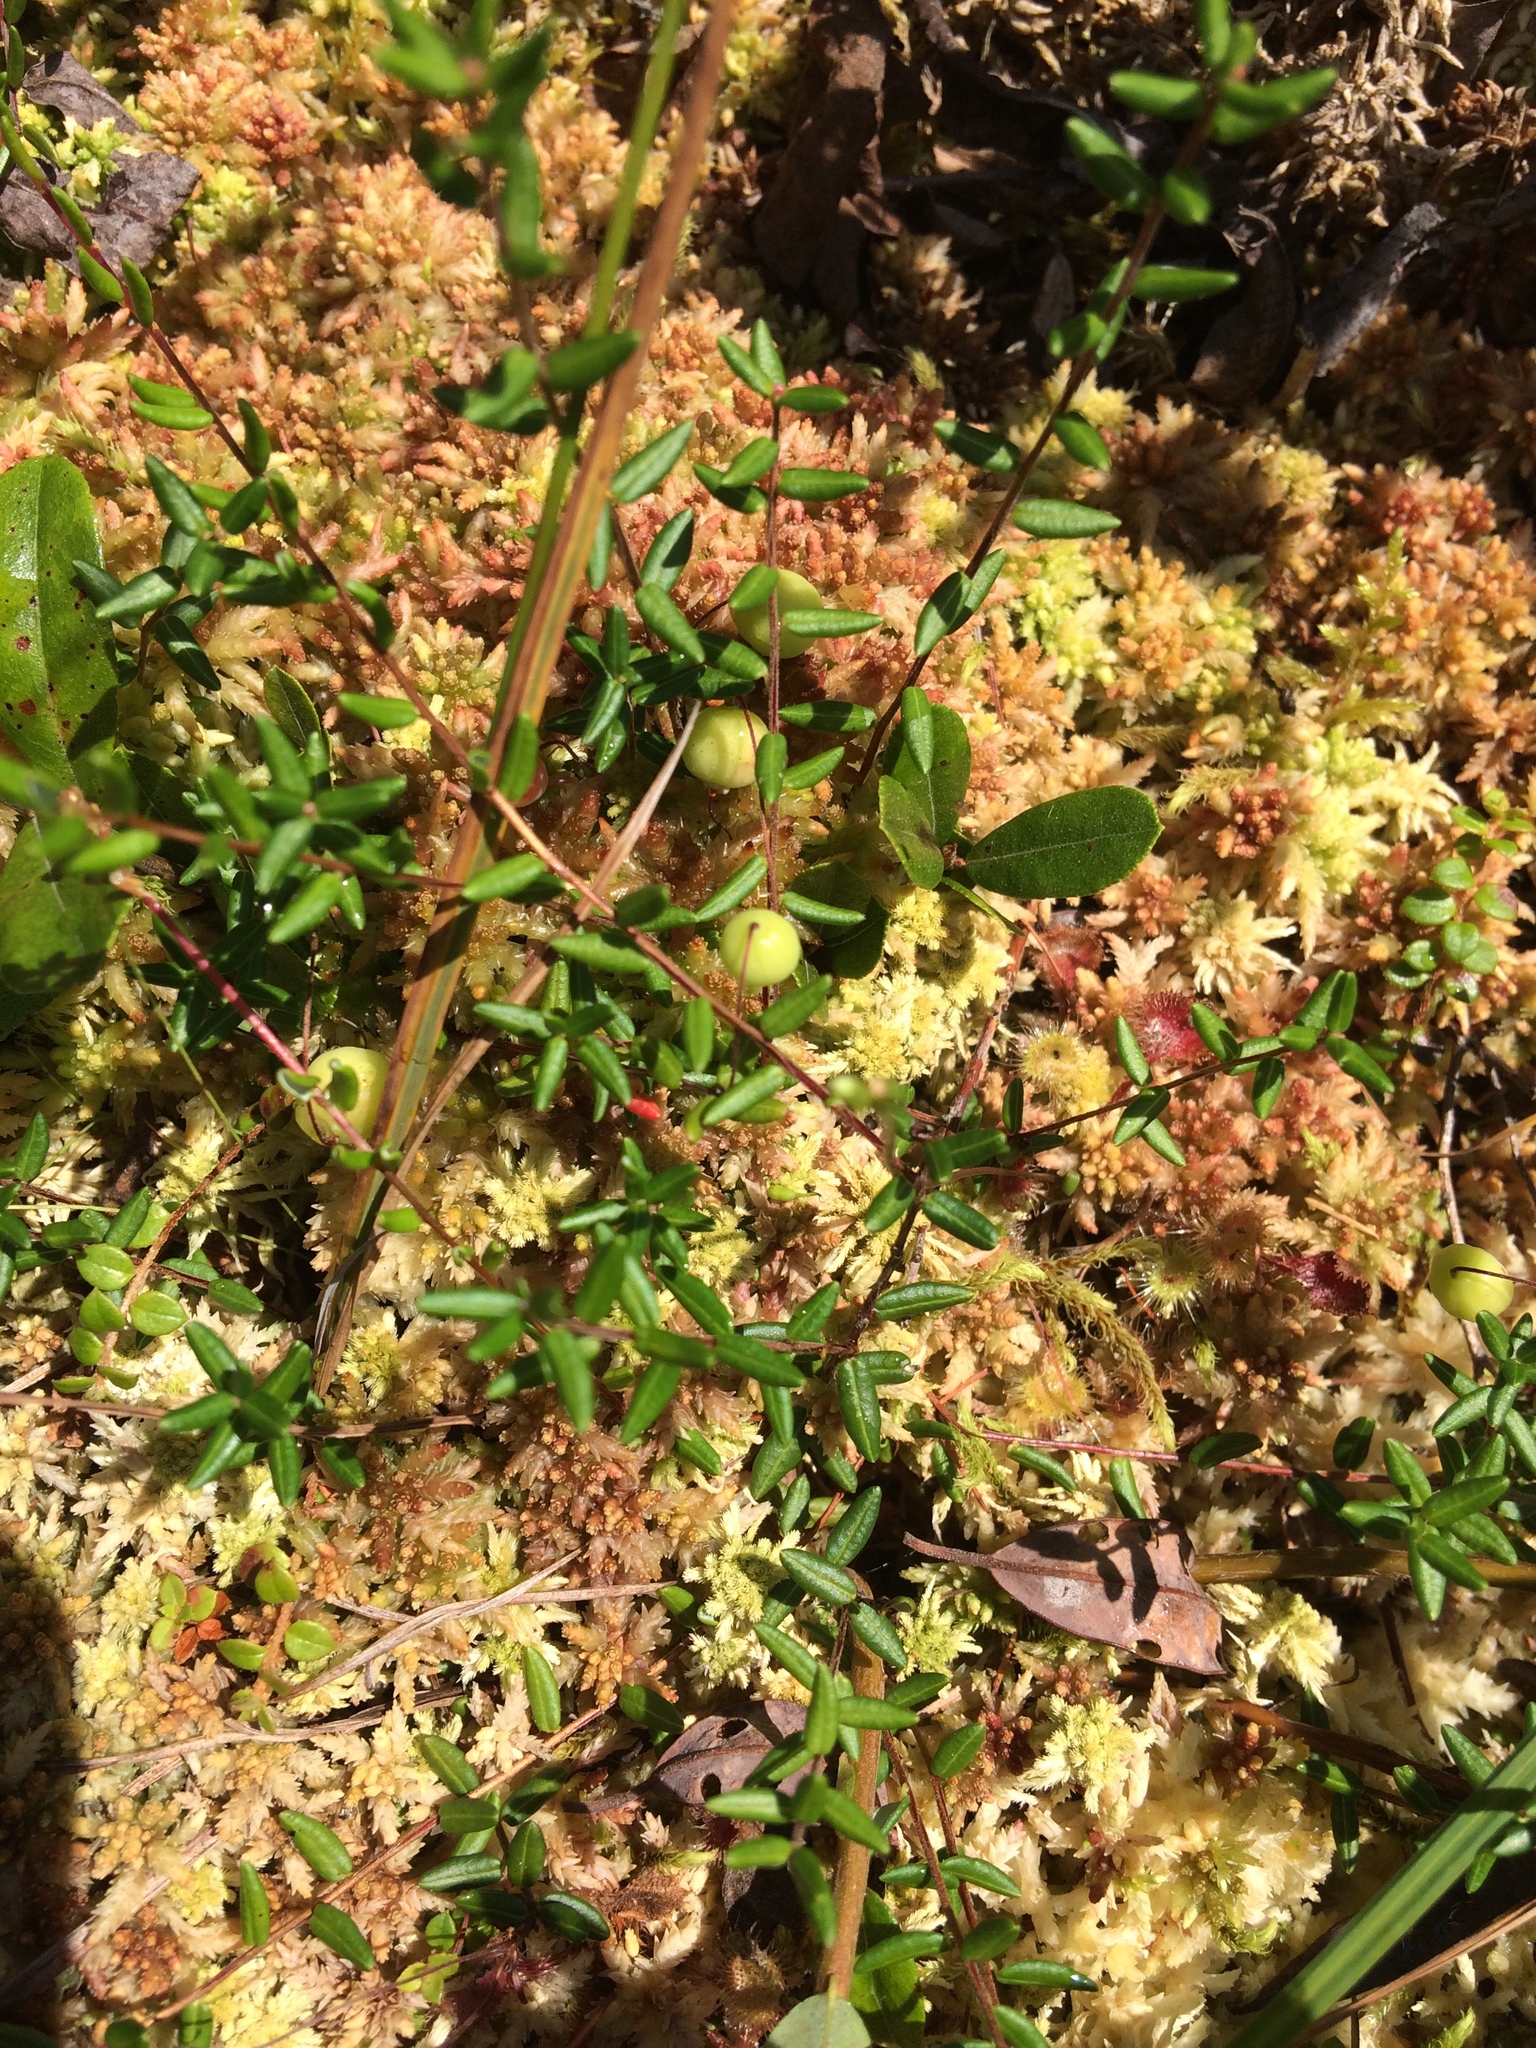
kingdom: Plantae
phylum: Tracheophyta
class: Magnoliopsida
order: Ericales
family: Ericaceae
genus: Vaccinium
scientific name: Vaccinium oxycoccos
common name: Cranberry
